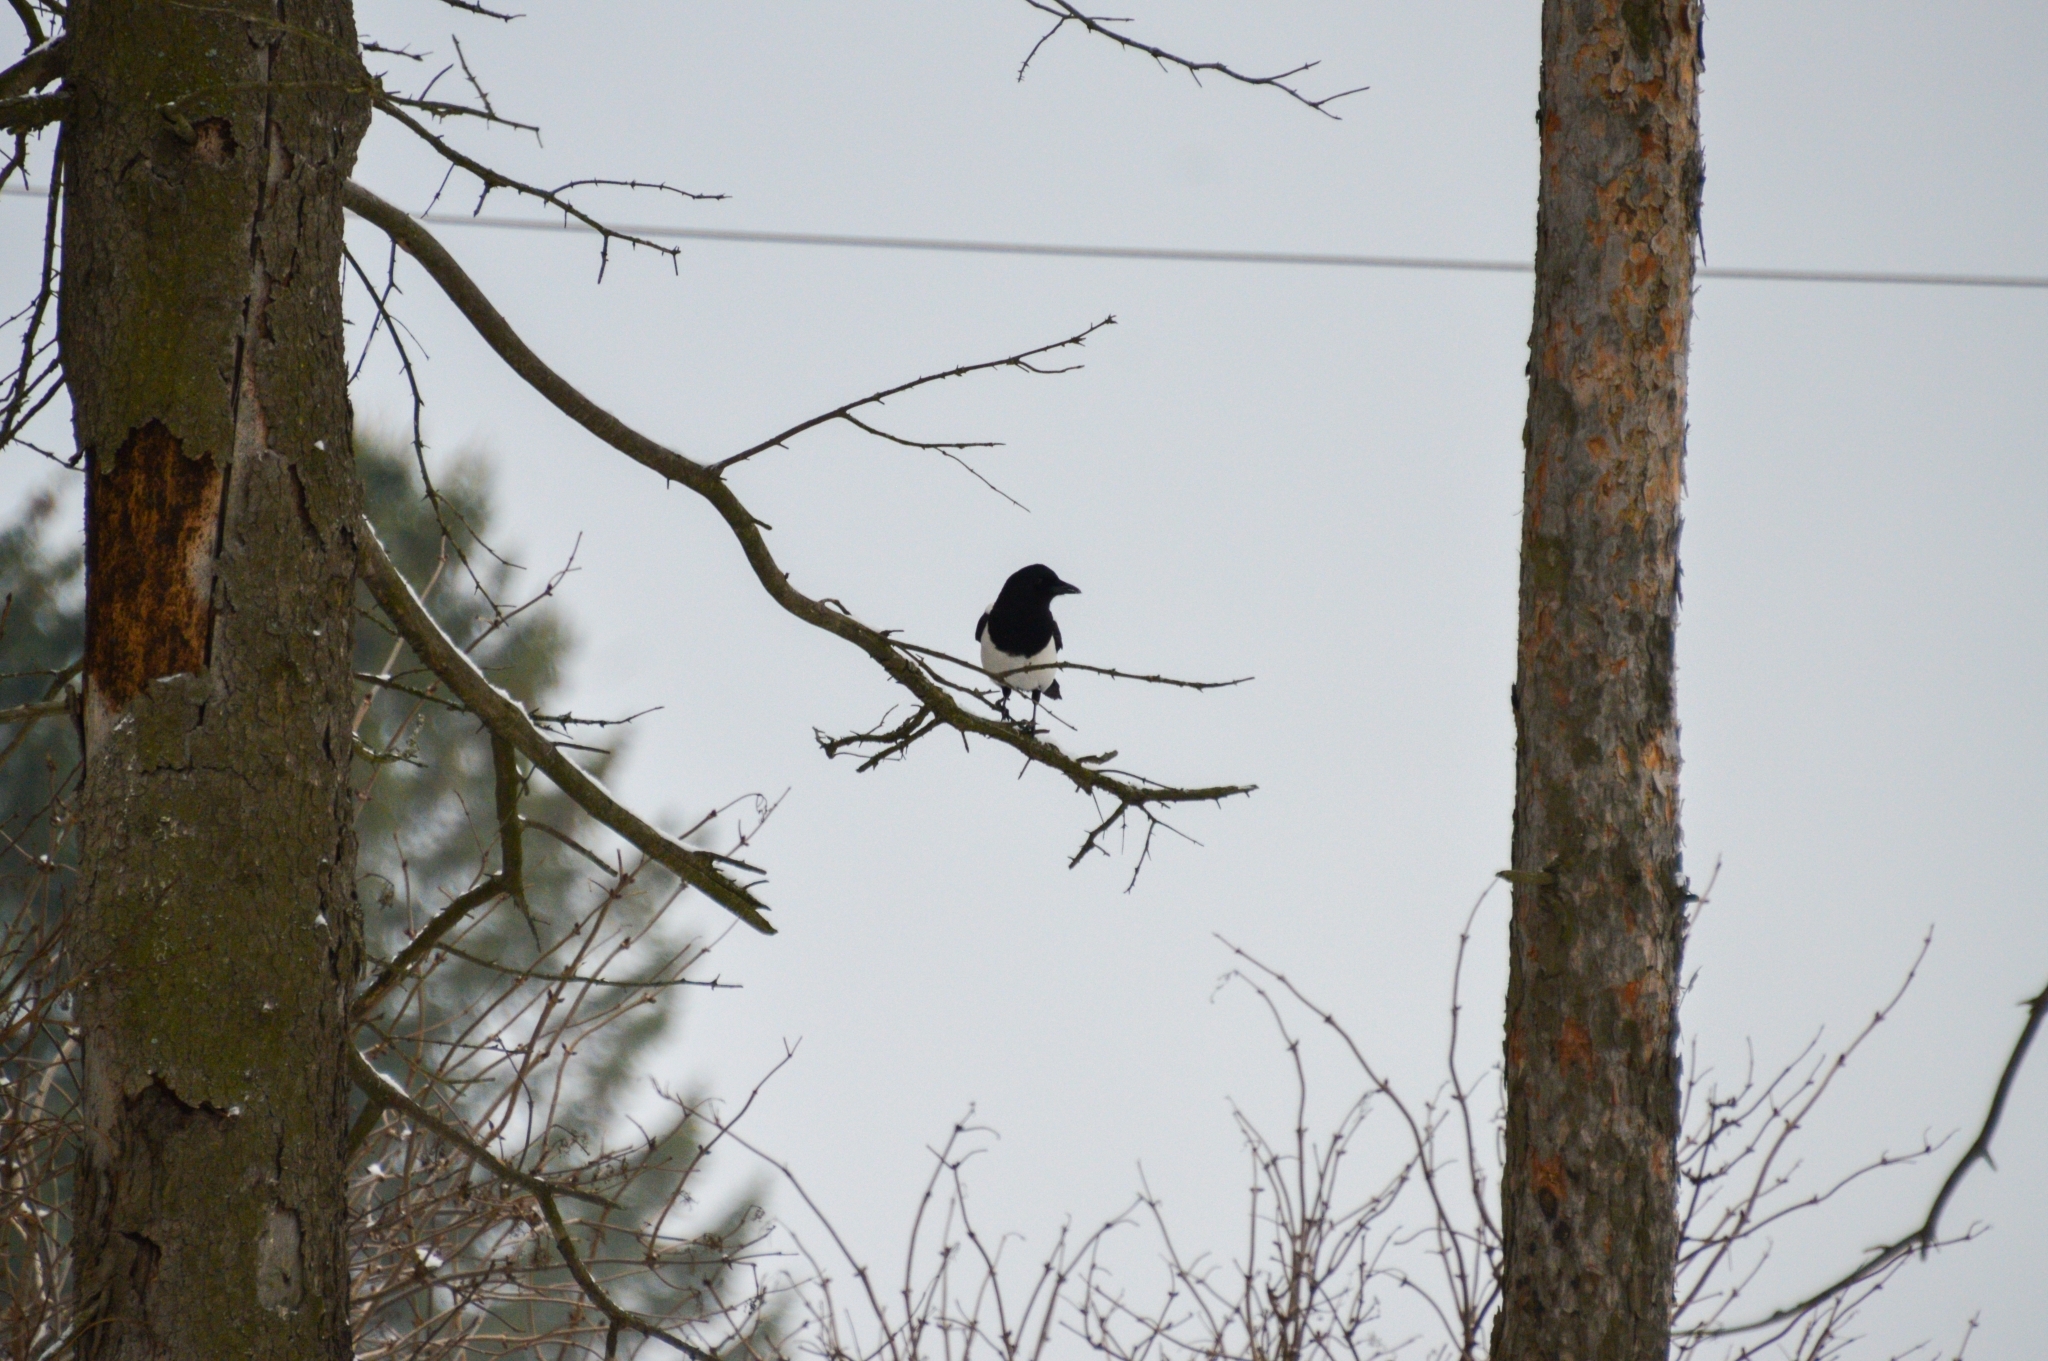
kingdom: Animalia
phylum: Chordata
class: Aves
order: Passeriformes
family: Corvidae
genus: Pica
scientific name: Pica pica
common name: Eurasian magpie
